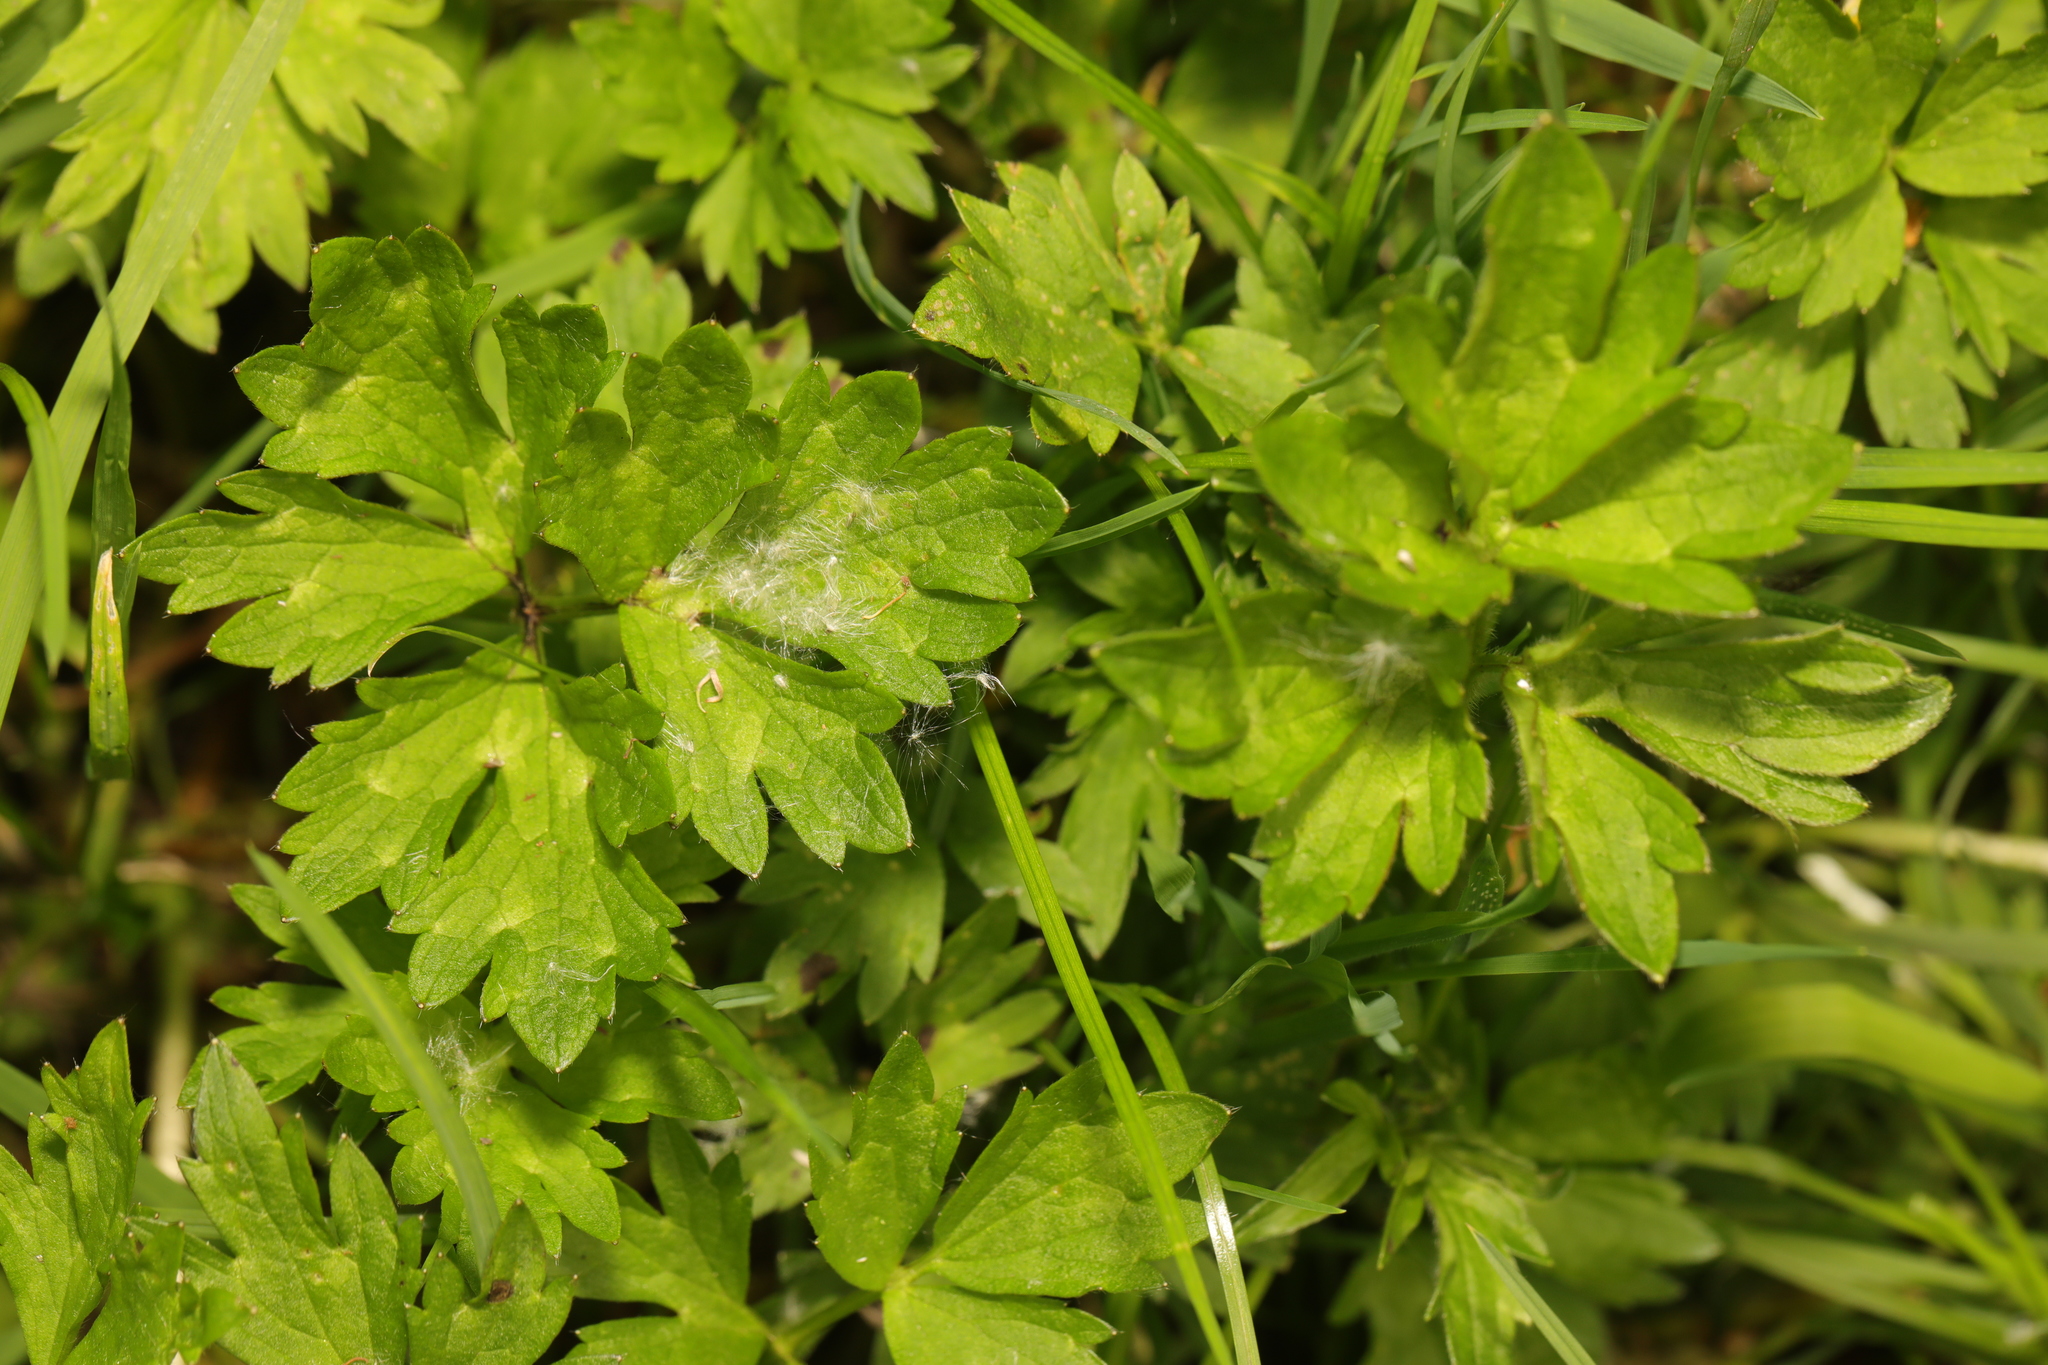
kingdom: Plantae
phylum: Tracheophyta
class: Magnoliopsida
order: Ranunculales
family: Ranunculaceae
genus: Ranunculus
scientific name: Ranunculus repens
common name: Creeping buttercup
